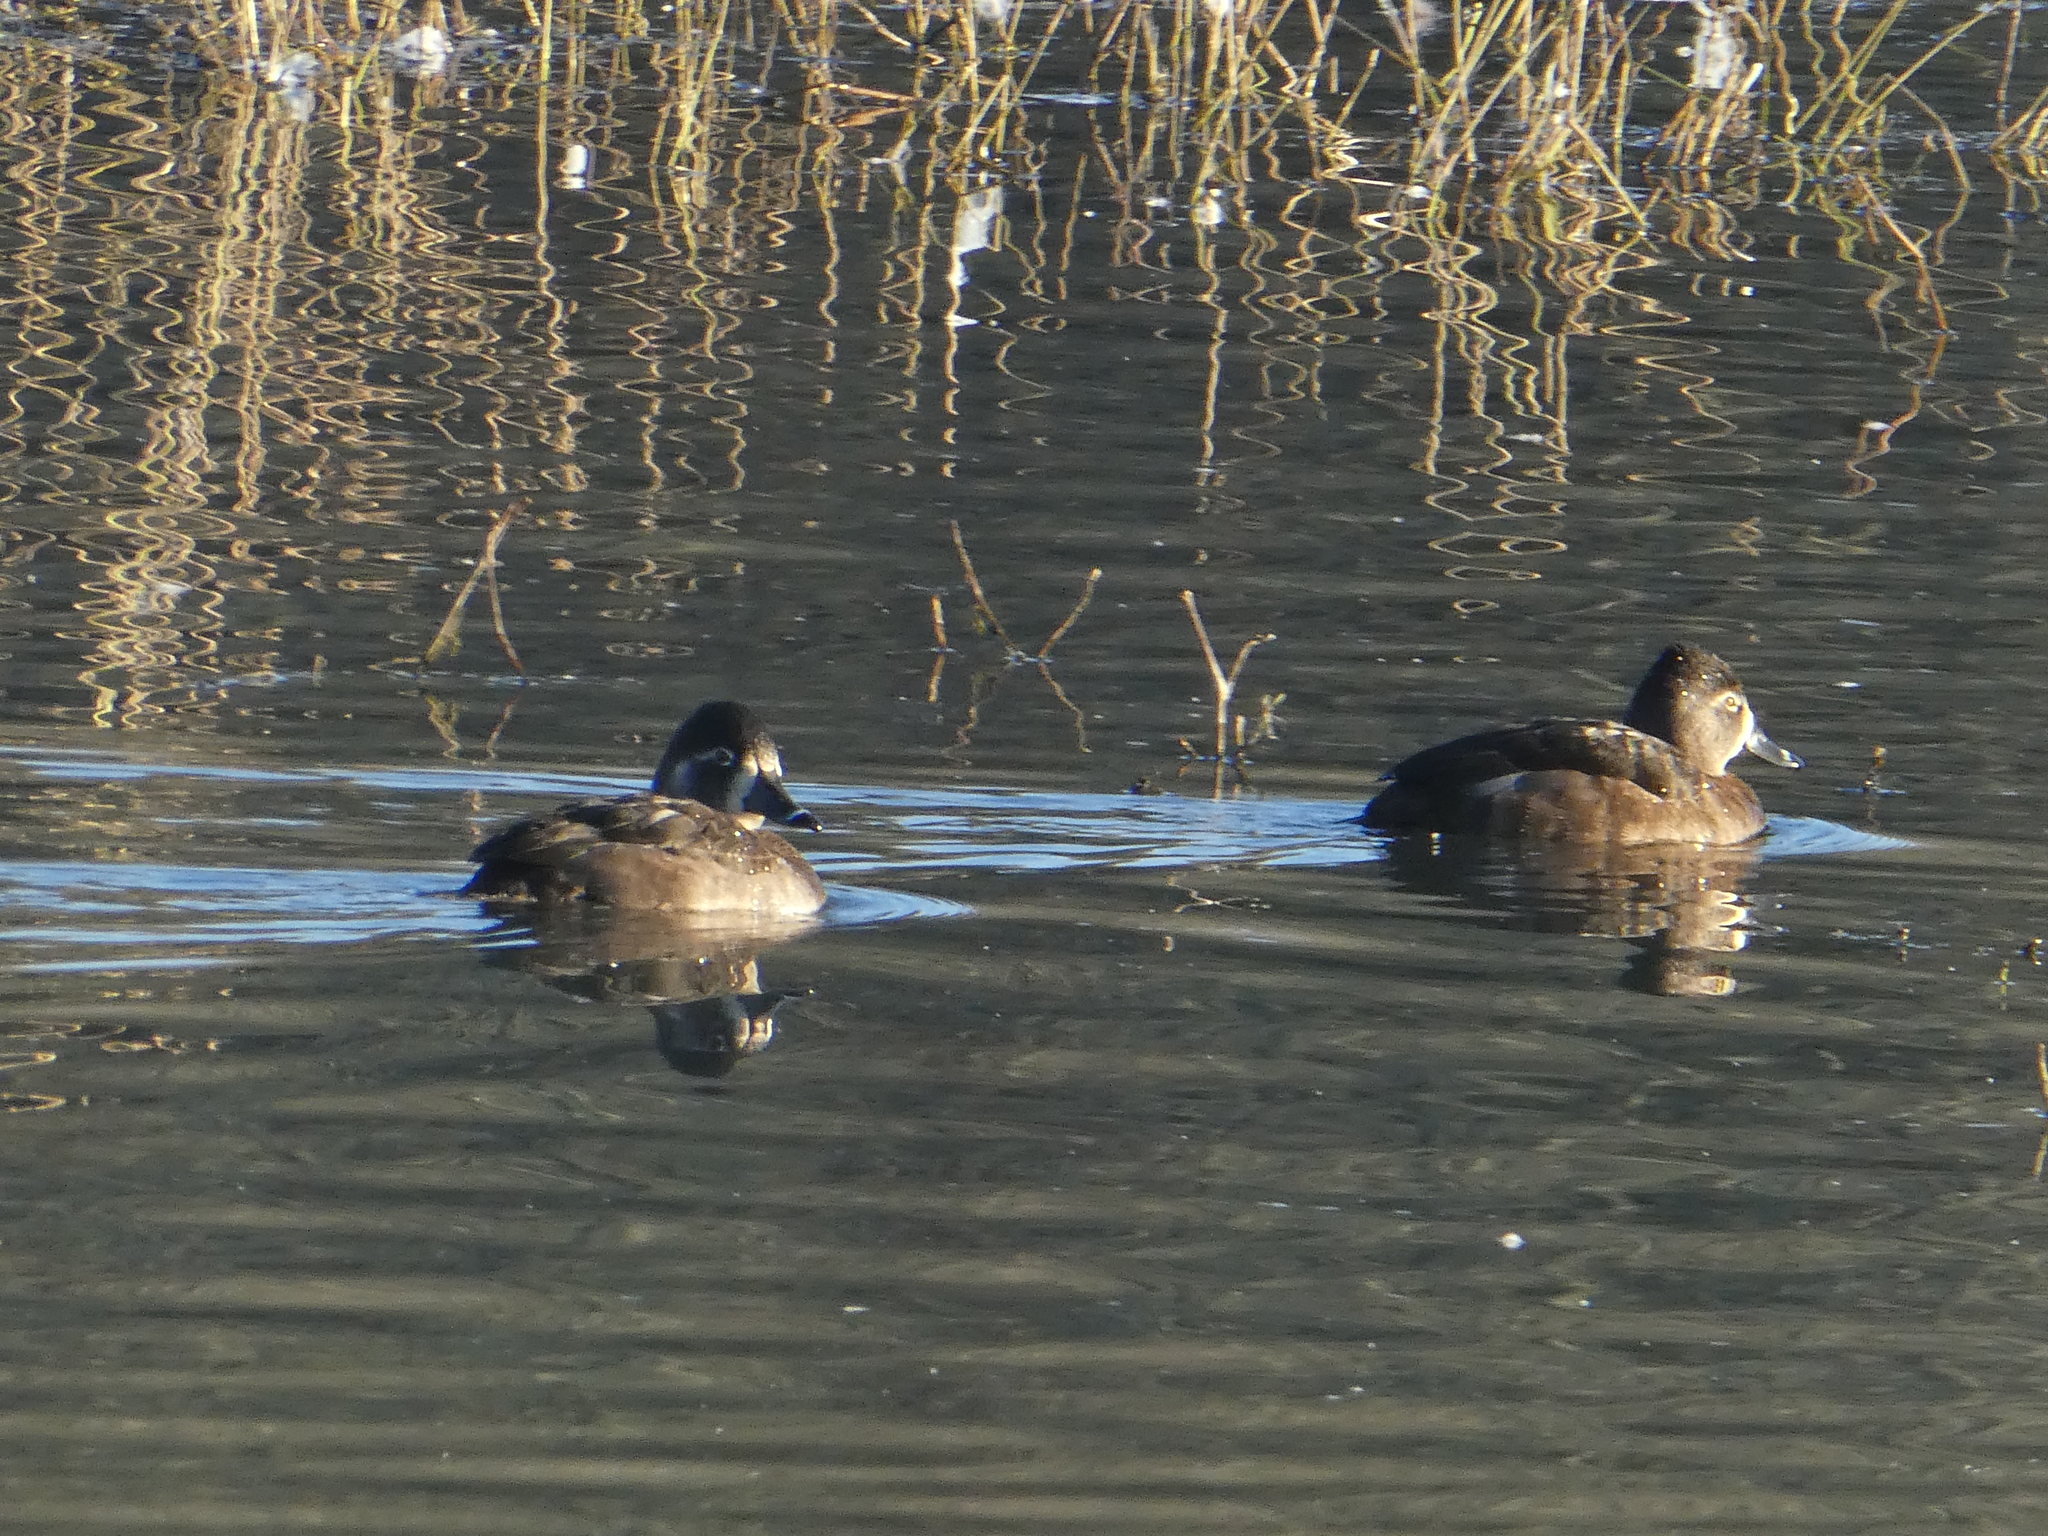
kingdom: Animalia
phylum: Chordata
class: Aves
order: Anseriformes
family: Anatidae
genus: Aythya
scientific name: Aythya collaris
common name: Ring-necked duck
